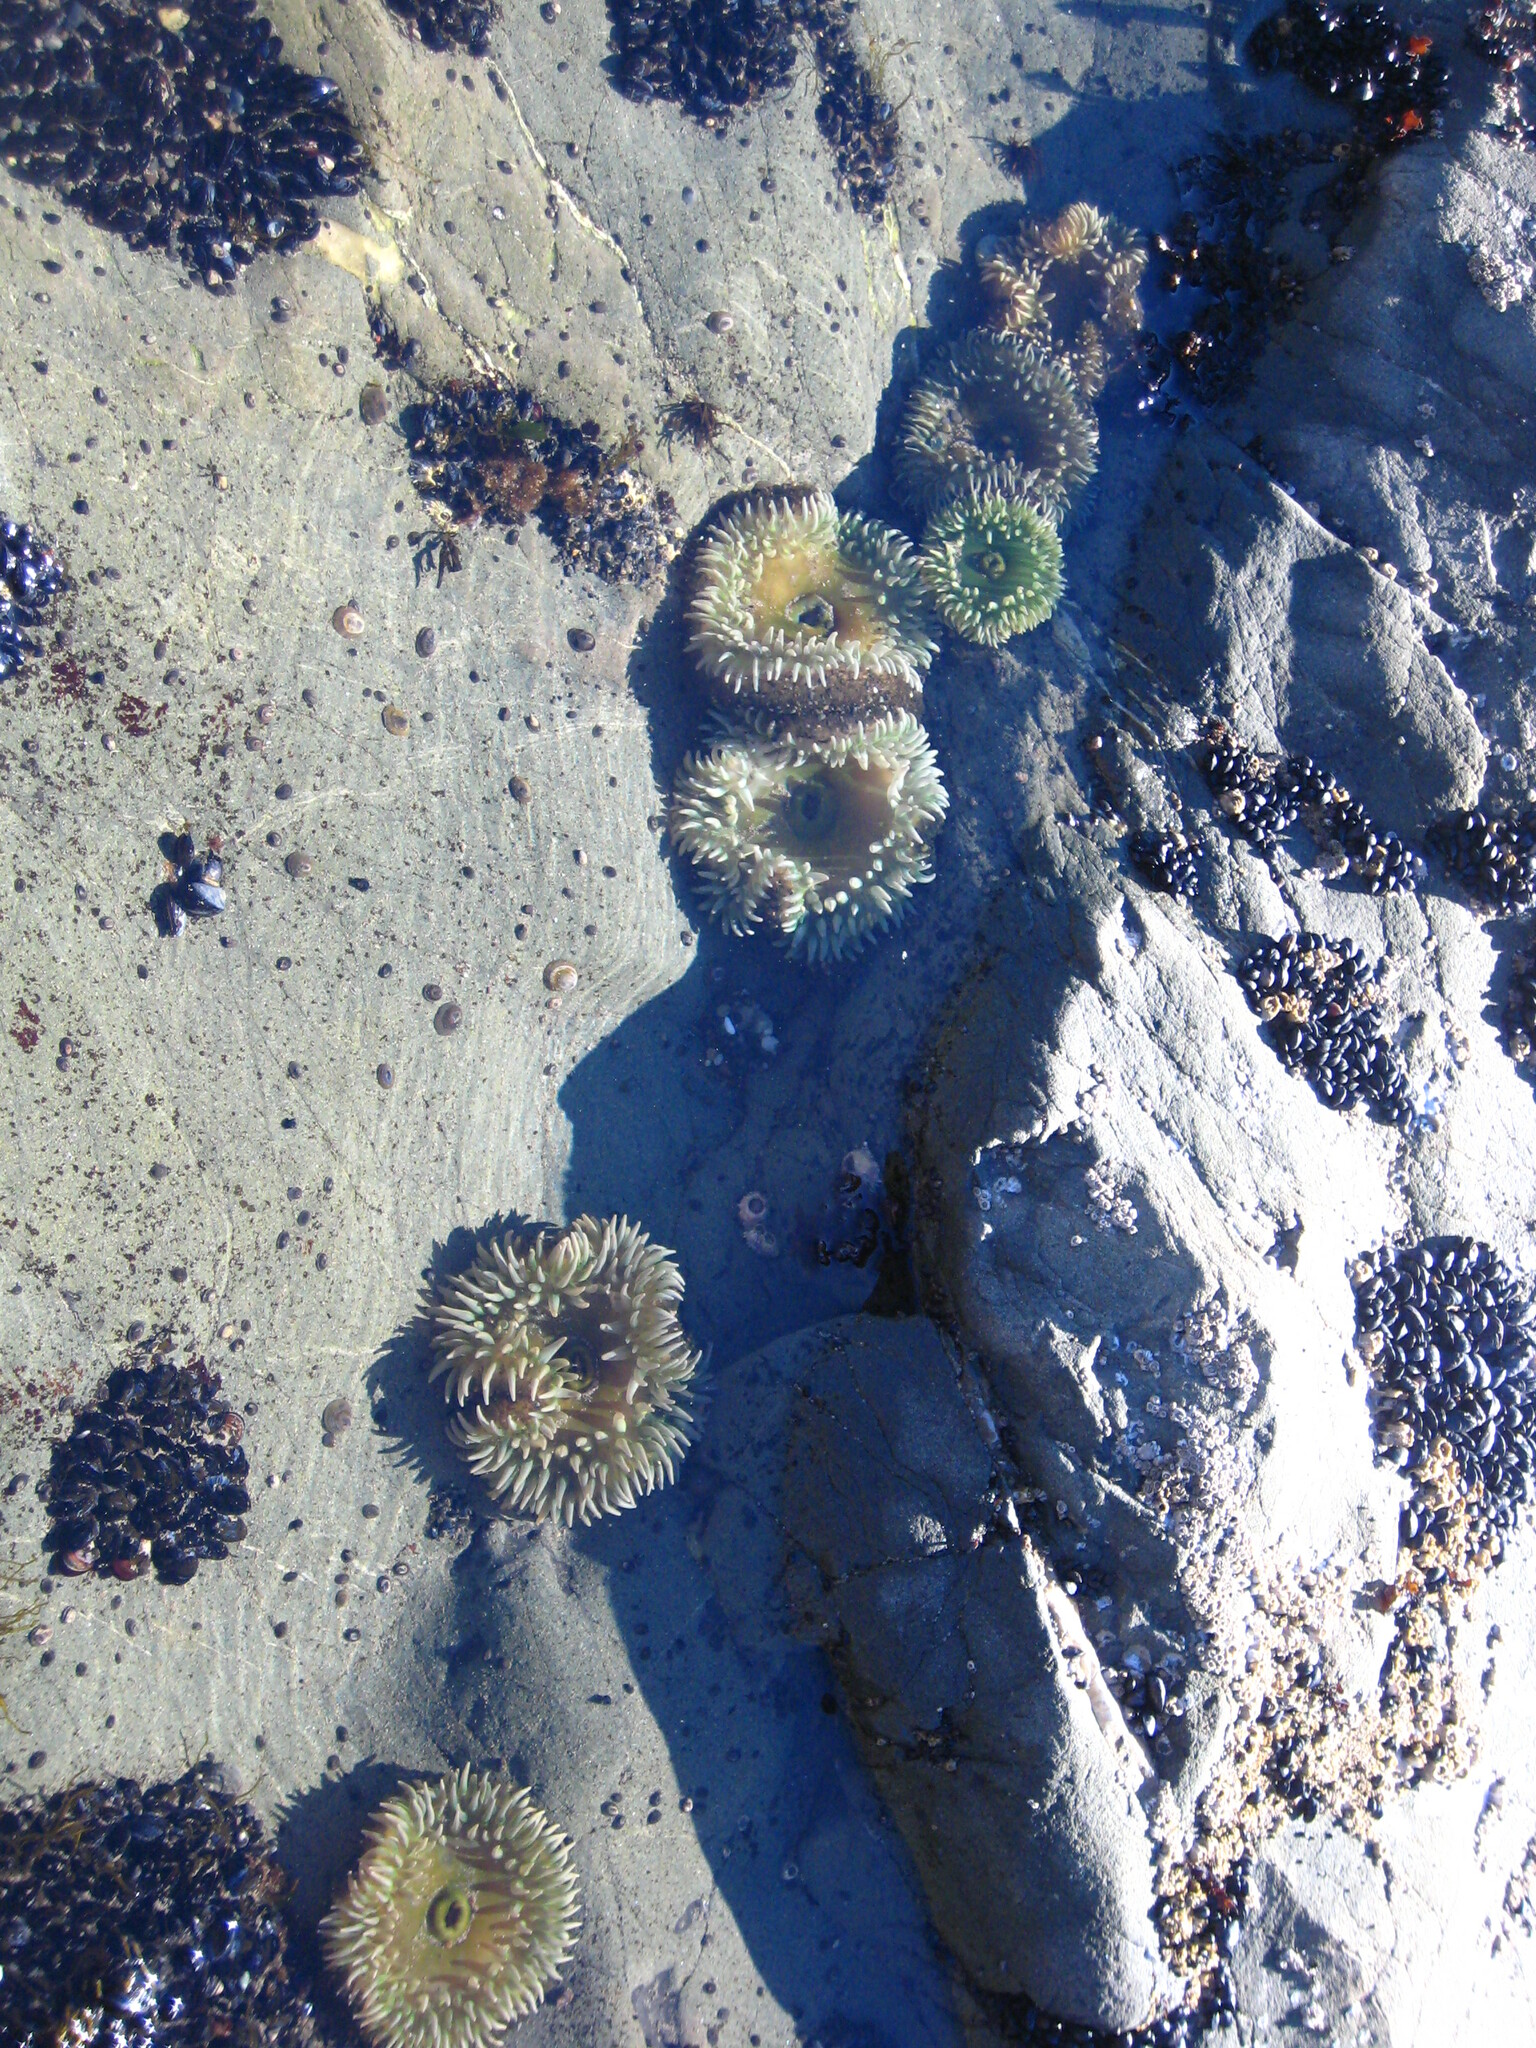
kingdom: Animalia
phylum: Cnidaria
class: Anthozoa
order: Actiniaria
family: Actiniidae
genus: Anthopleura
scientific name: Anthopleura xanthogrammica
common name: Giant green anemone
